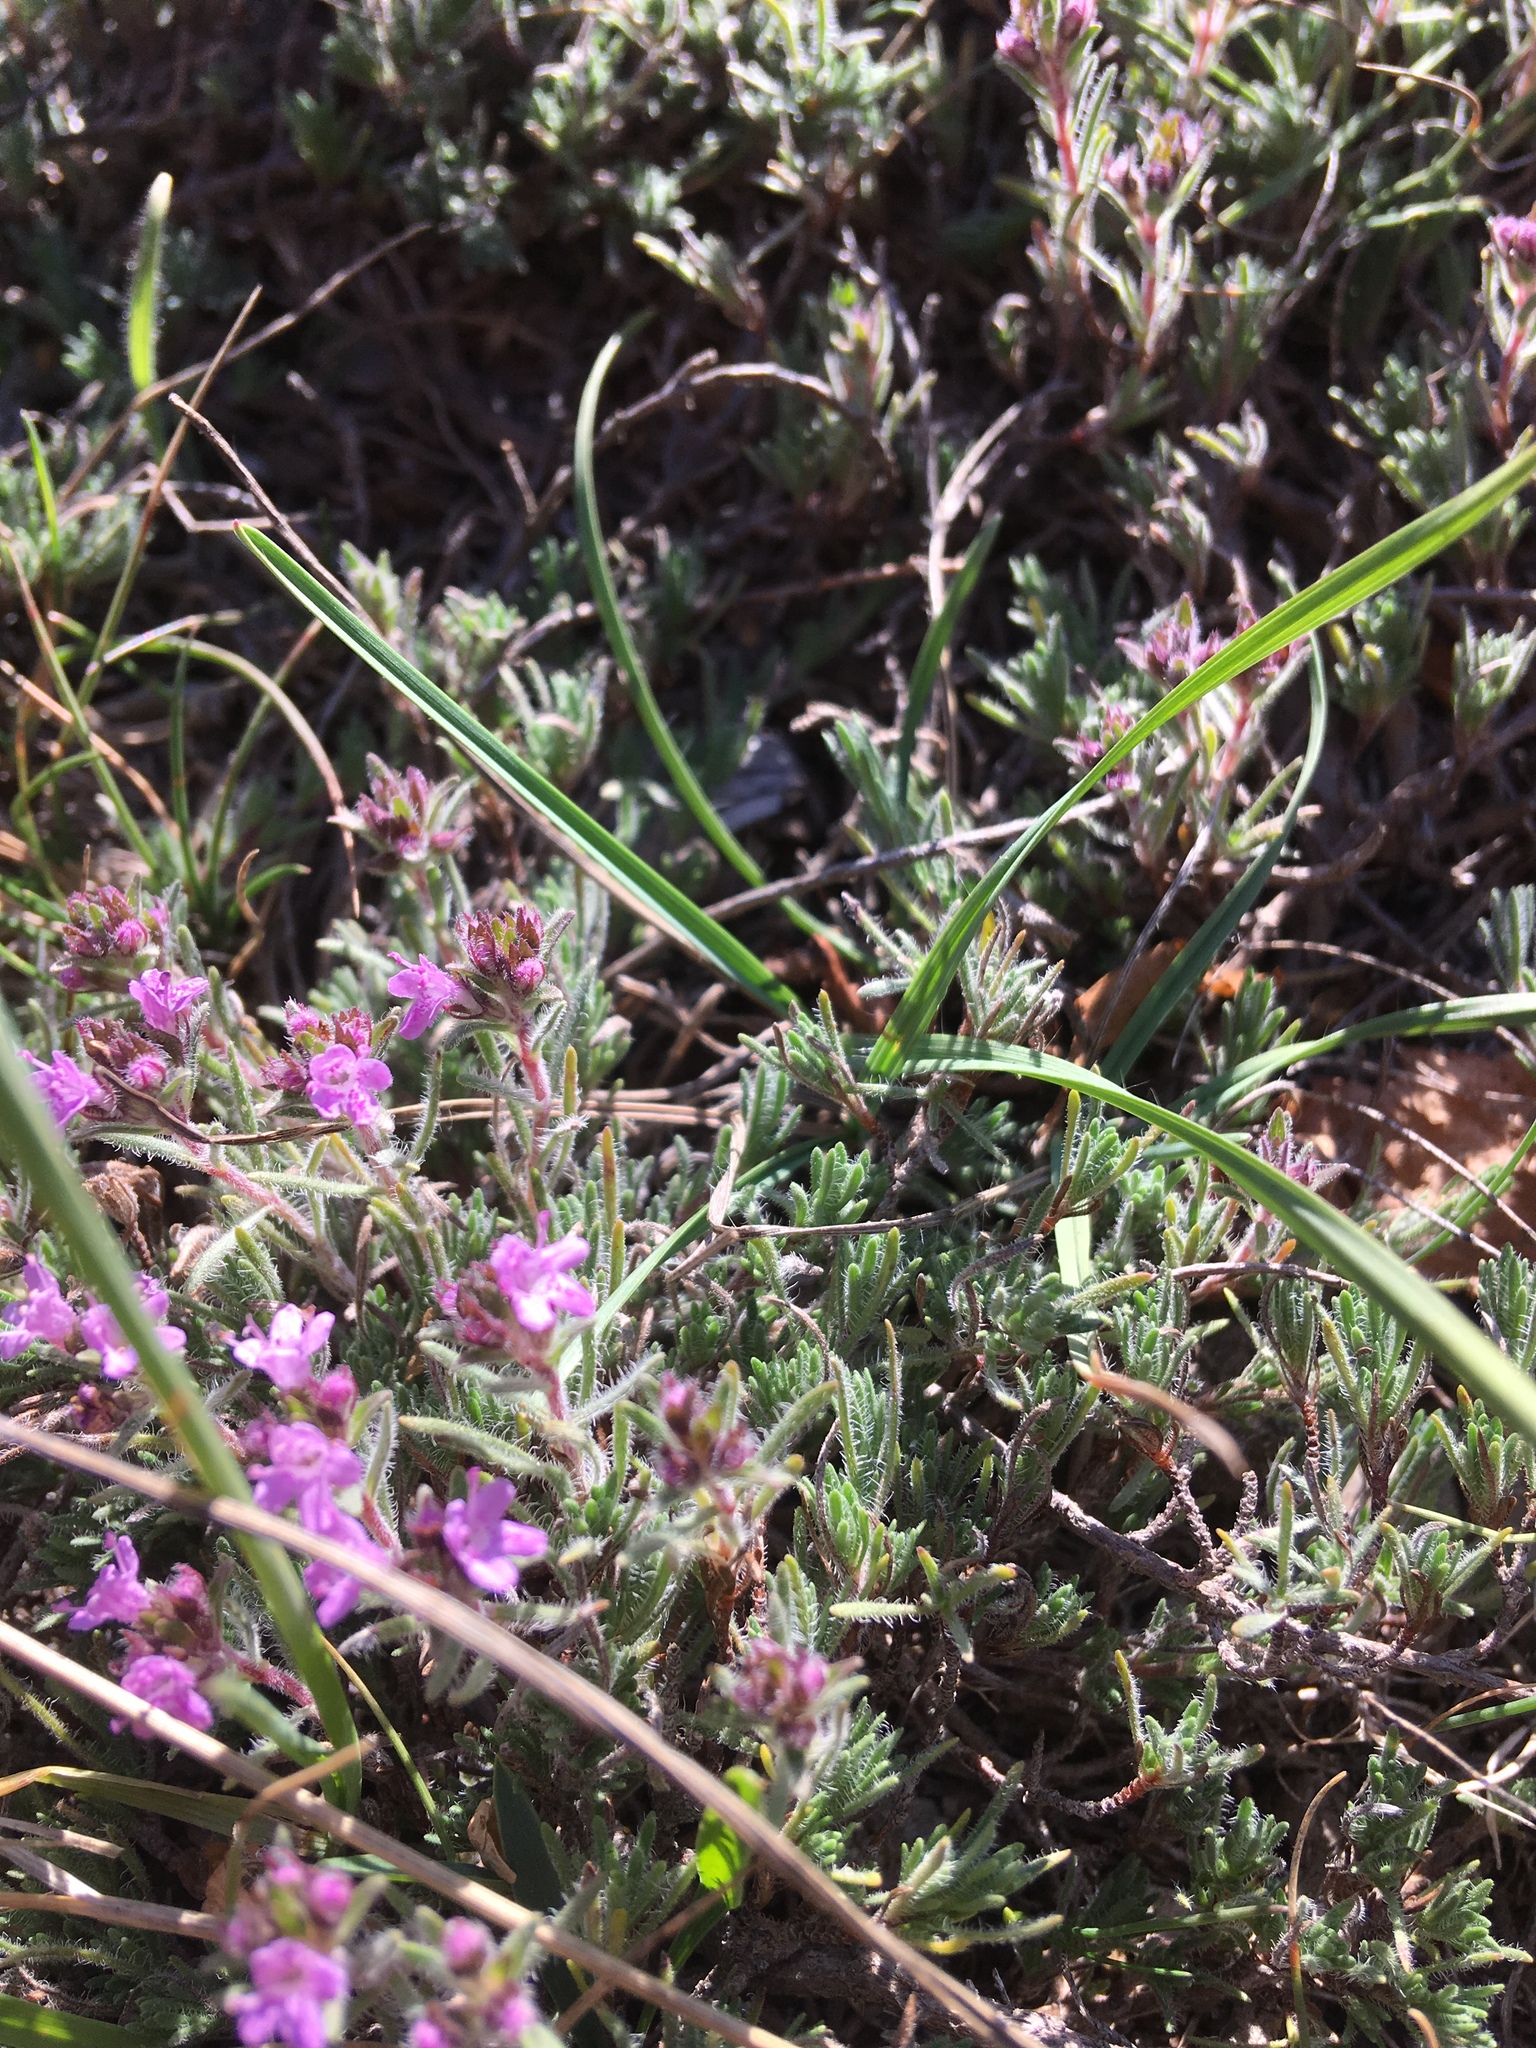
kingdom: Plantae
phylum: Tracheophyta
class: Magnoliopsida
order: Lamiales
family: Lamiaceae
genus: Thymus
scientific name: Thymus tauricus
